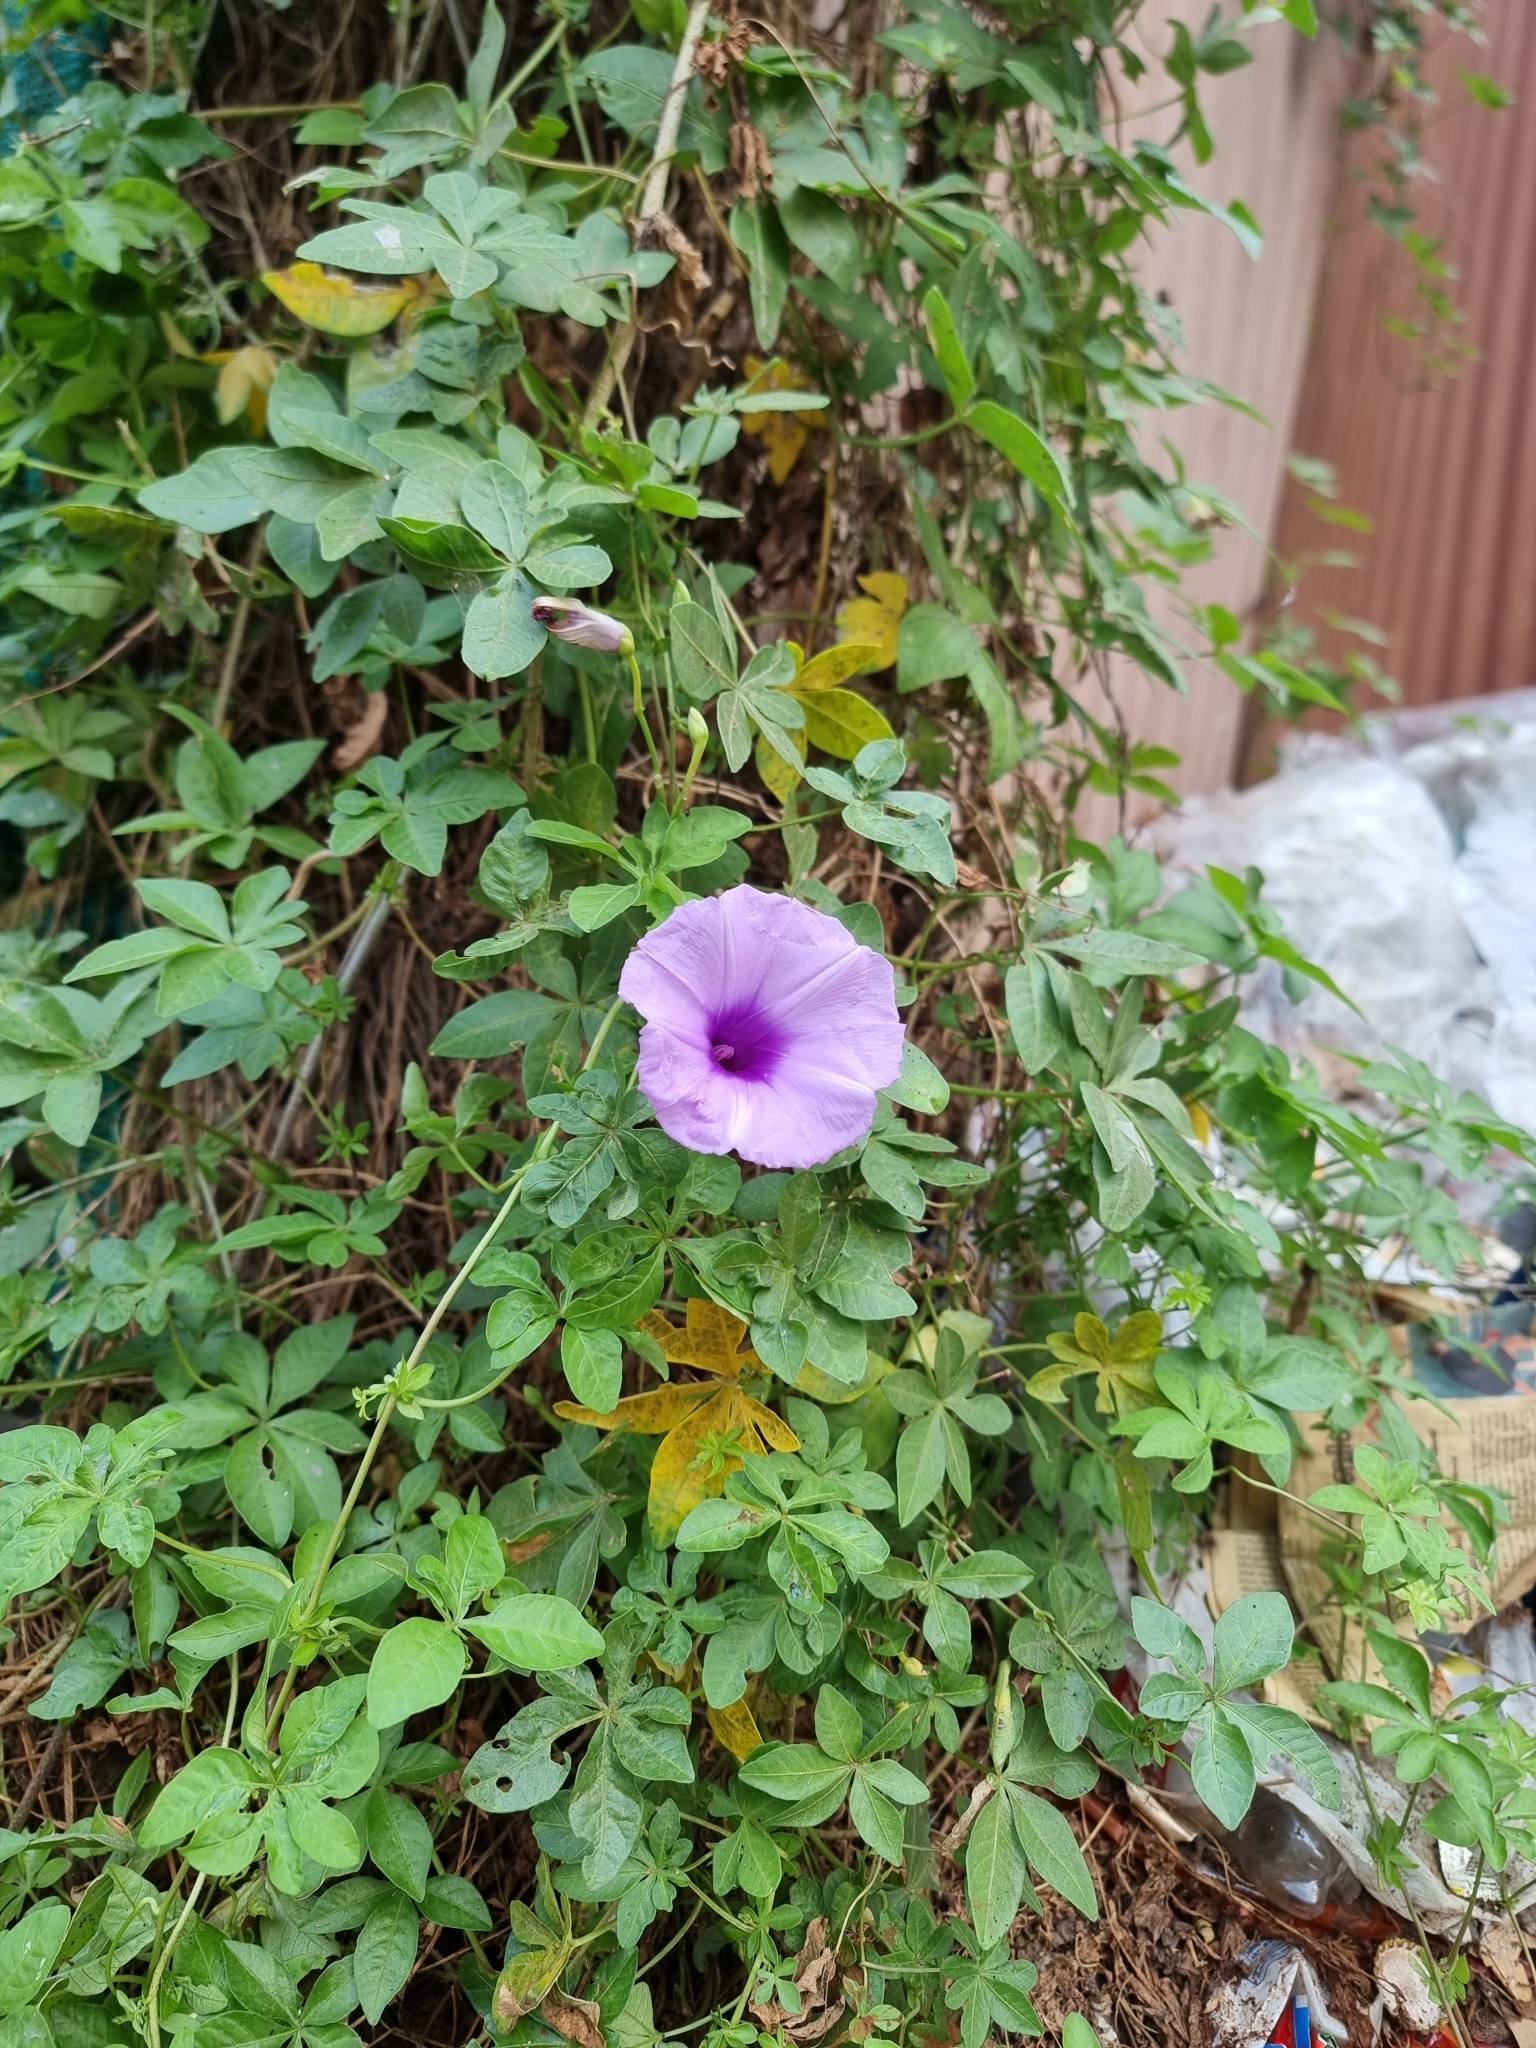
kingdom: Plantae
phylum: Tracheophyta
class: Magnoliopsida
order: Solanales
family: Convolvulaceae
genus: Ipomoea
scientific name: Ipomoea cairica
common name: Mile a minute vine
